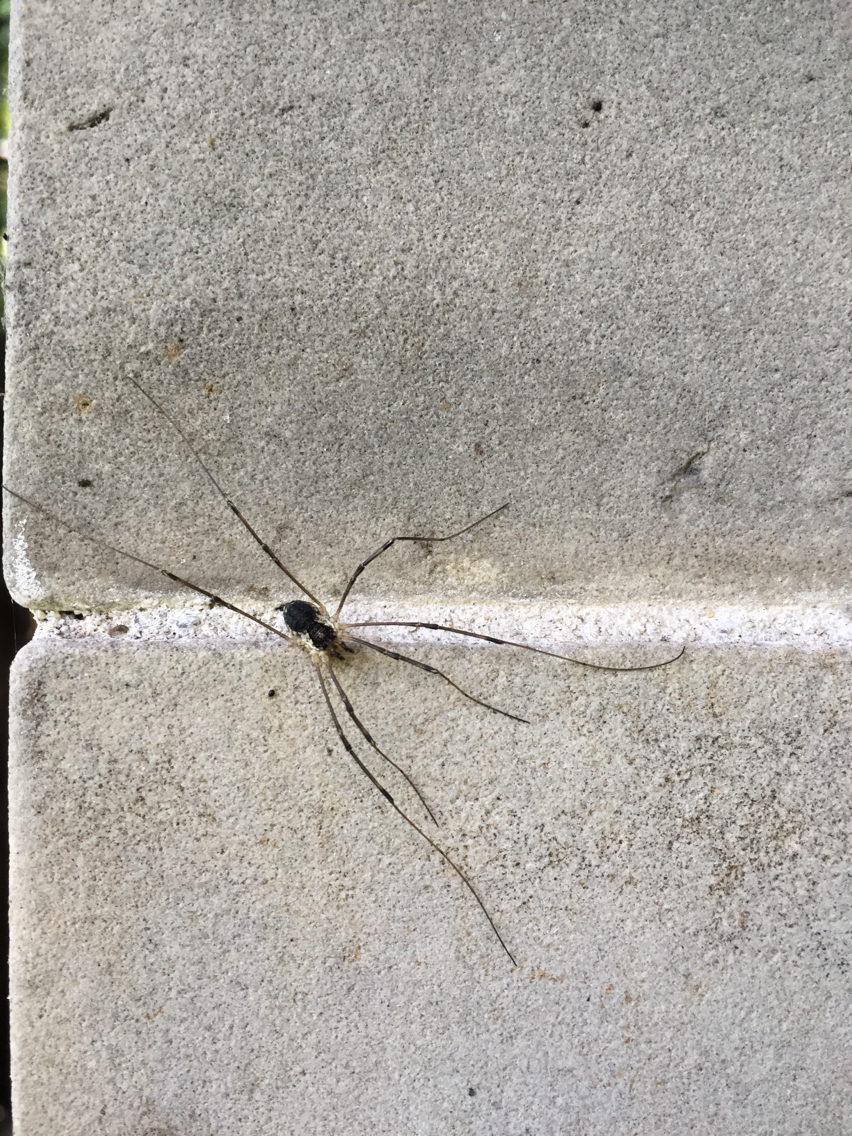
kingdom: Animalia
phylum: Arthropoda
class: Arachnida
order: Opiliones
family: Phalangiidae
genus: Mitopus
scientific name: Mitopus morio
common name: Saddleback harvestman
